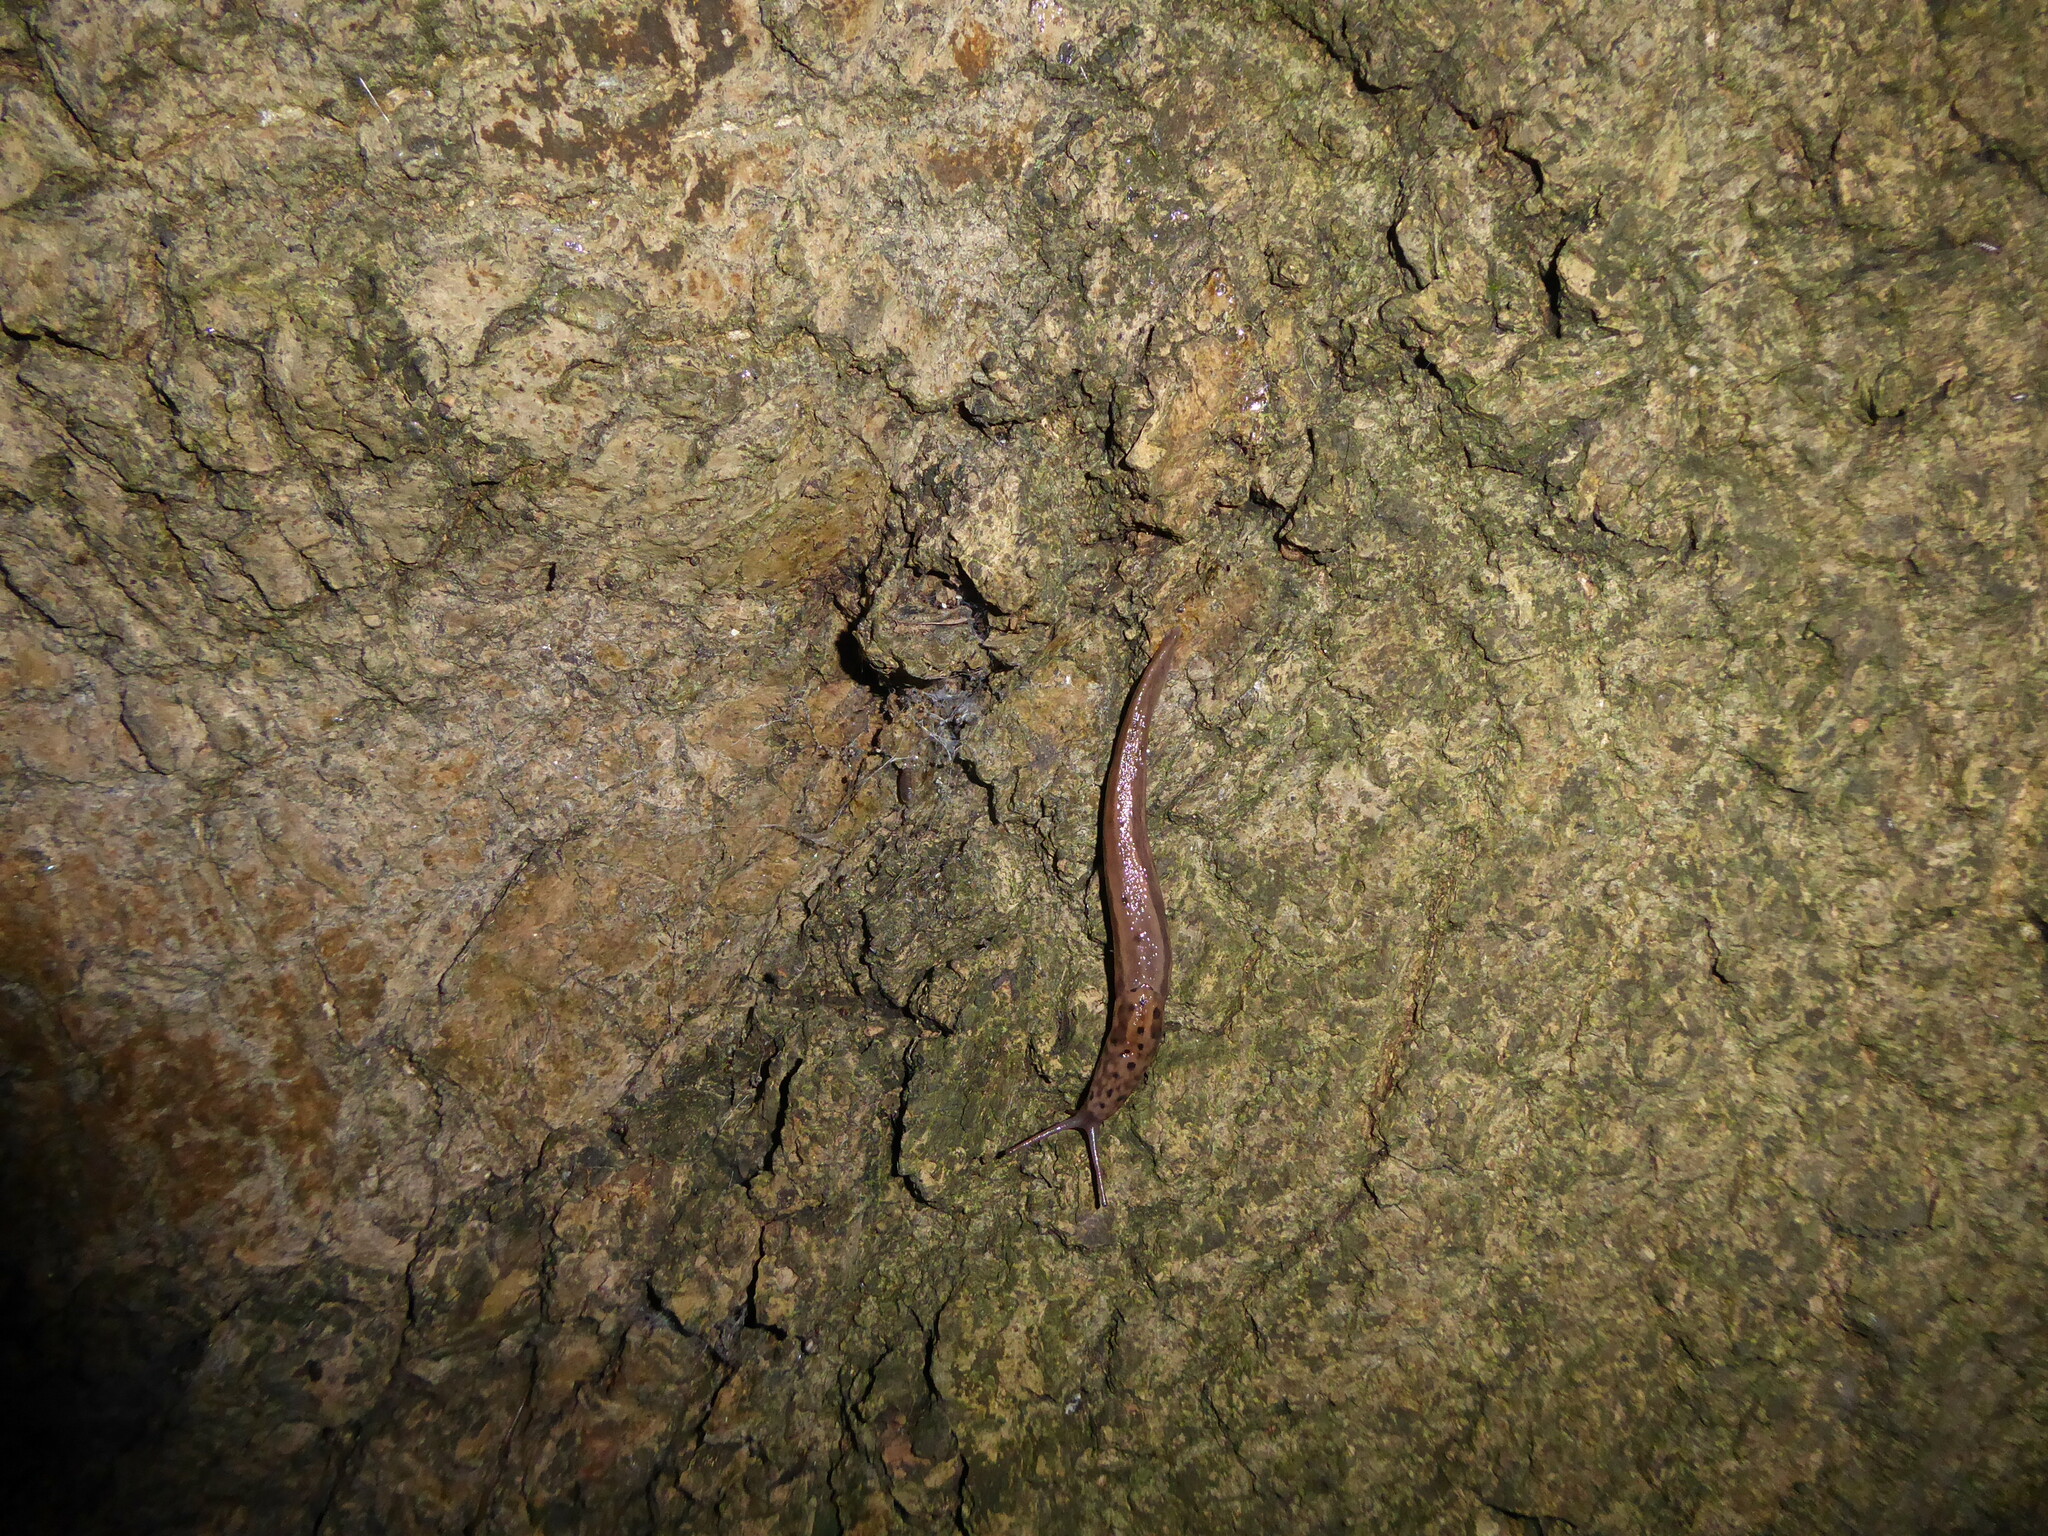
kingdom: Animalia
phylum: Mollusca
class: Gastropoda
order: Stylommatophora
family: Limacidae
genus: Limax
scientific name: Limax maximus
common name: Great grey slug
